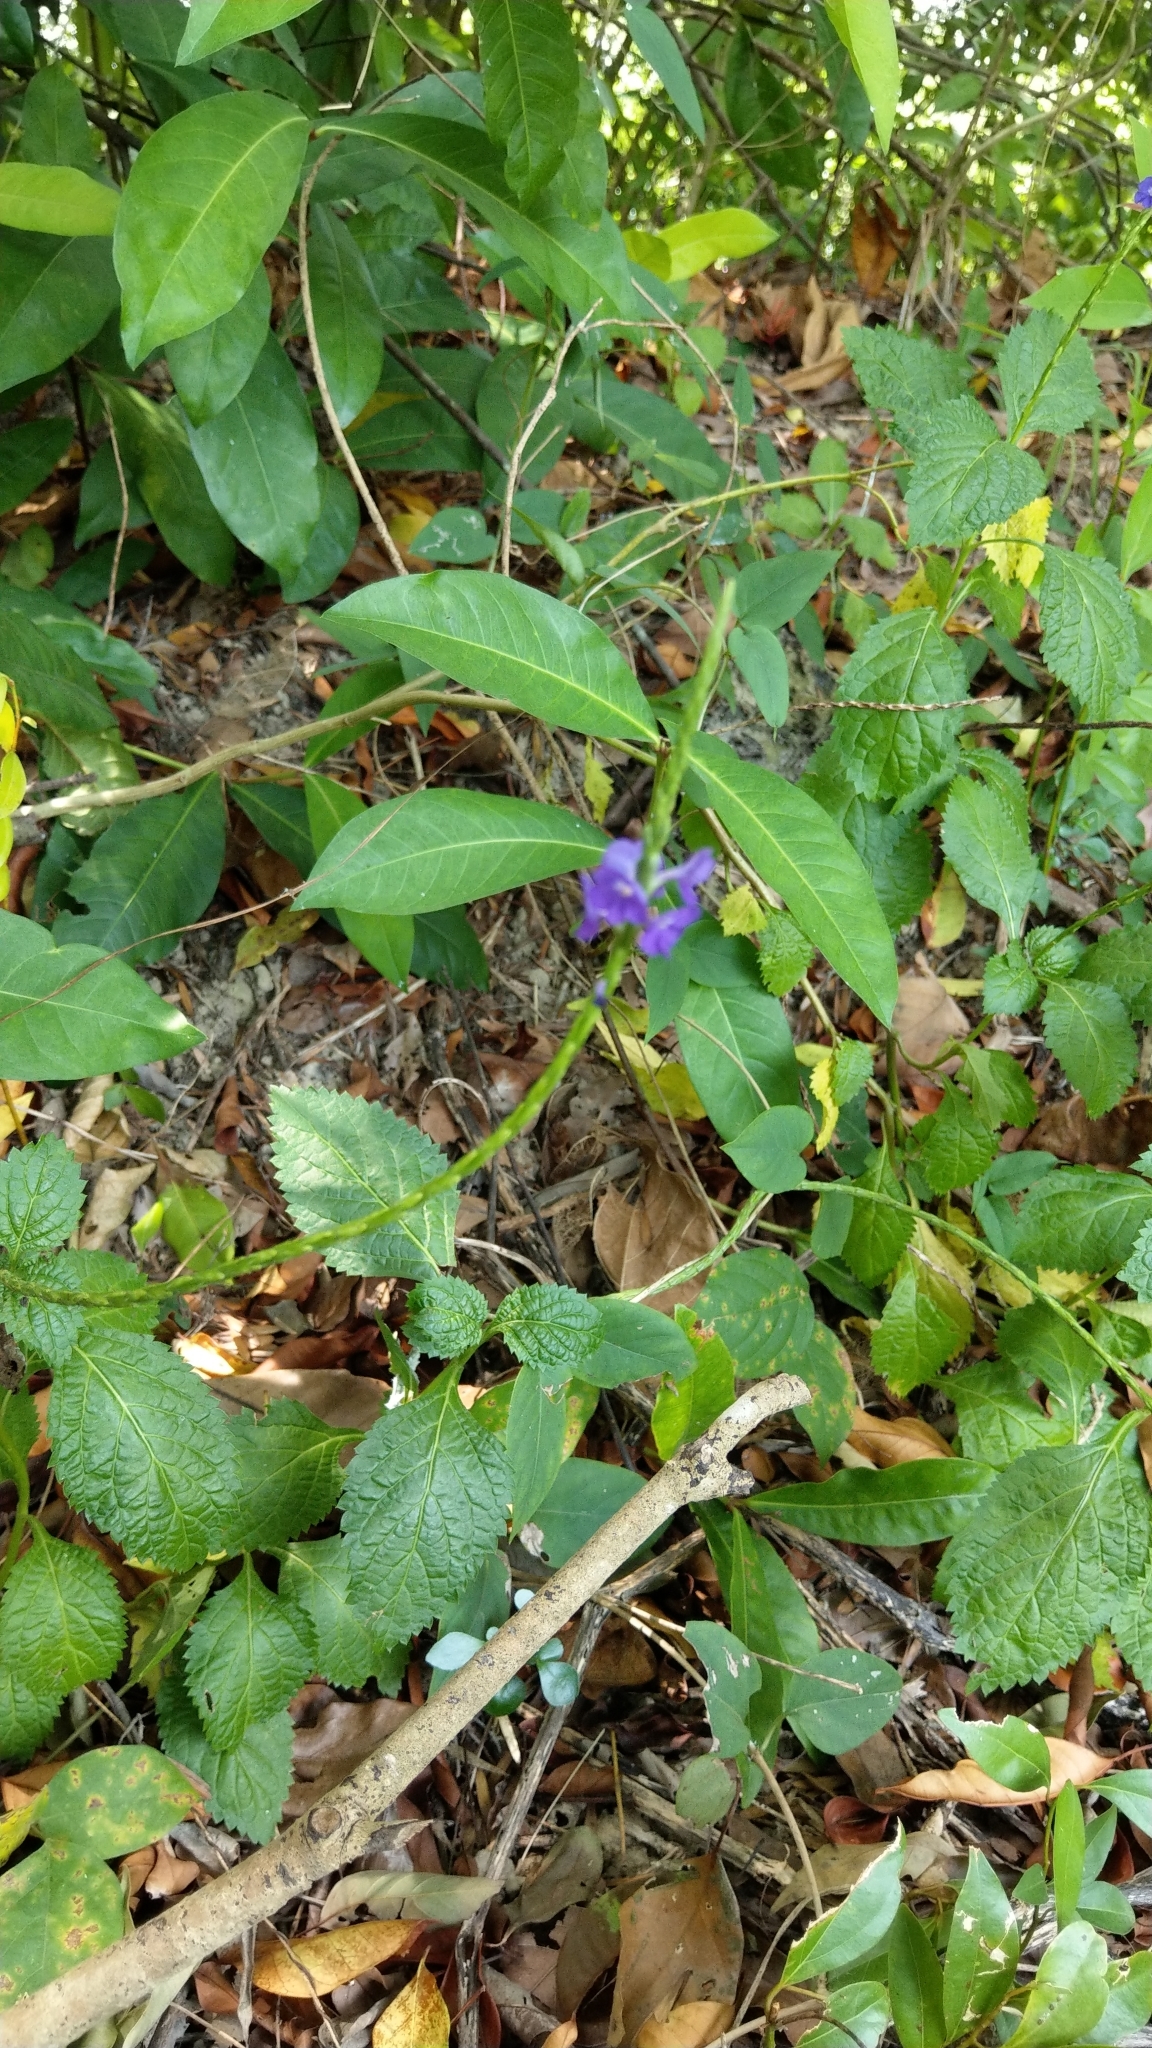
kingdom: Plantae
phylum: Tracheophyta
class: Magnoliopsida
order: Lamiales
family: Verbenaceae
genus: Stachytarpheta
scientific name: Stachytarpheta urticifolia
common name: Nettleleaf velvetberry
